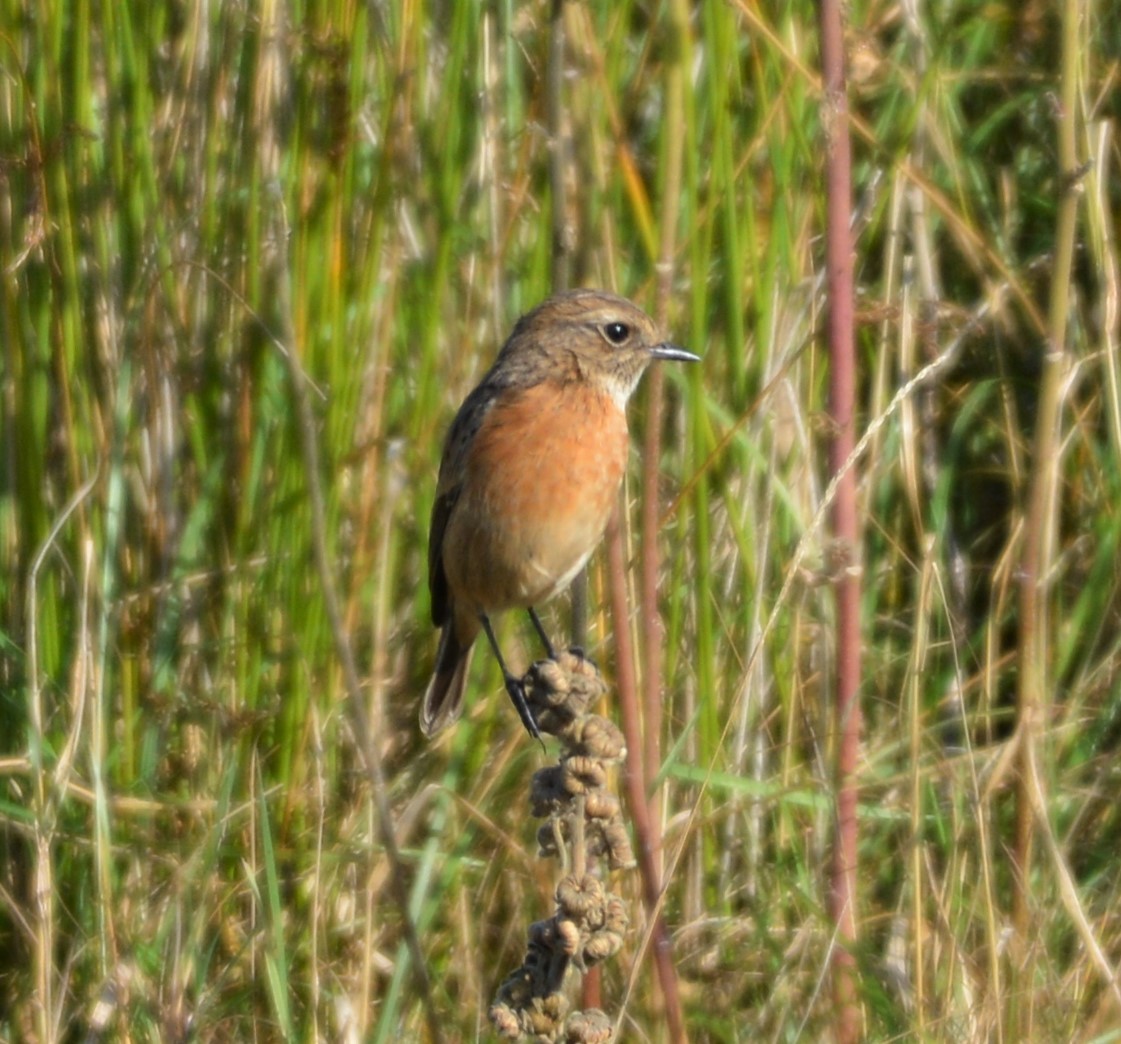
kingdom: Animalia
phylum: Chordata
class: Aves
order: Passeriformes
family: Muscicapidae
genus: Saxicola
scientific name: Saxicola rubicola
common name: European stonechat
